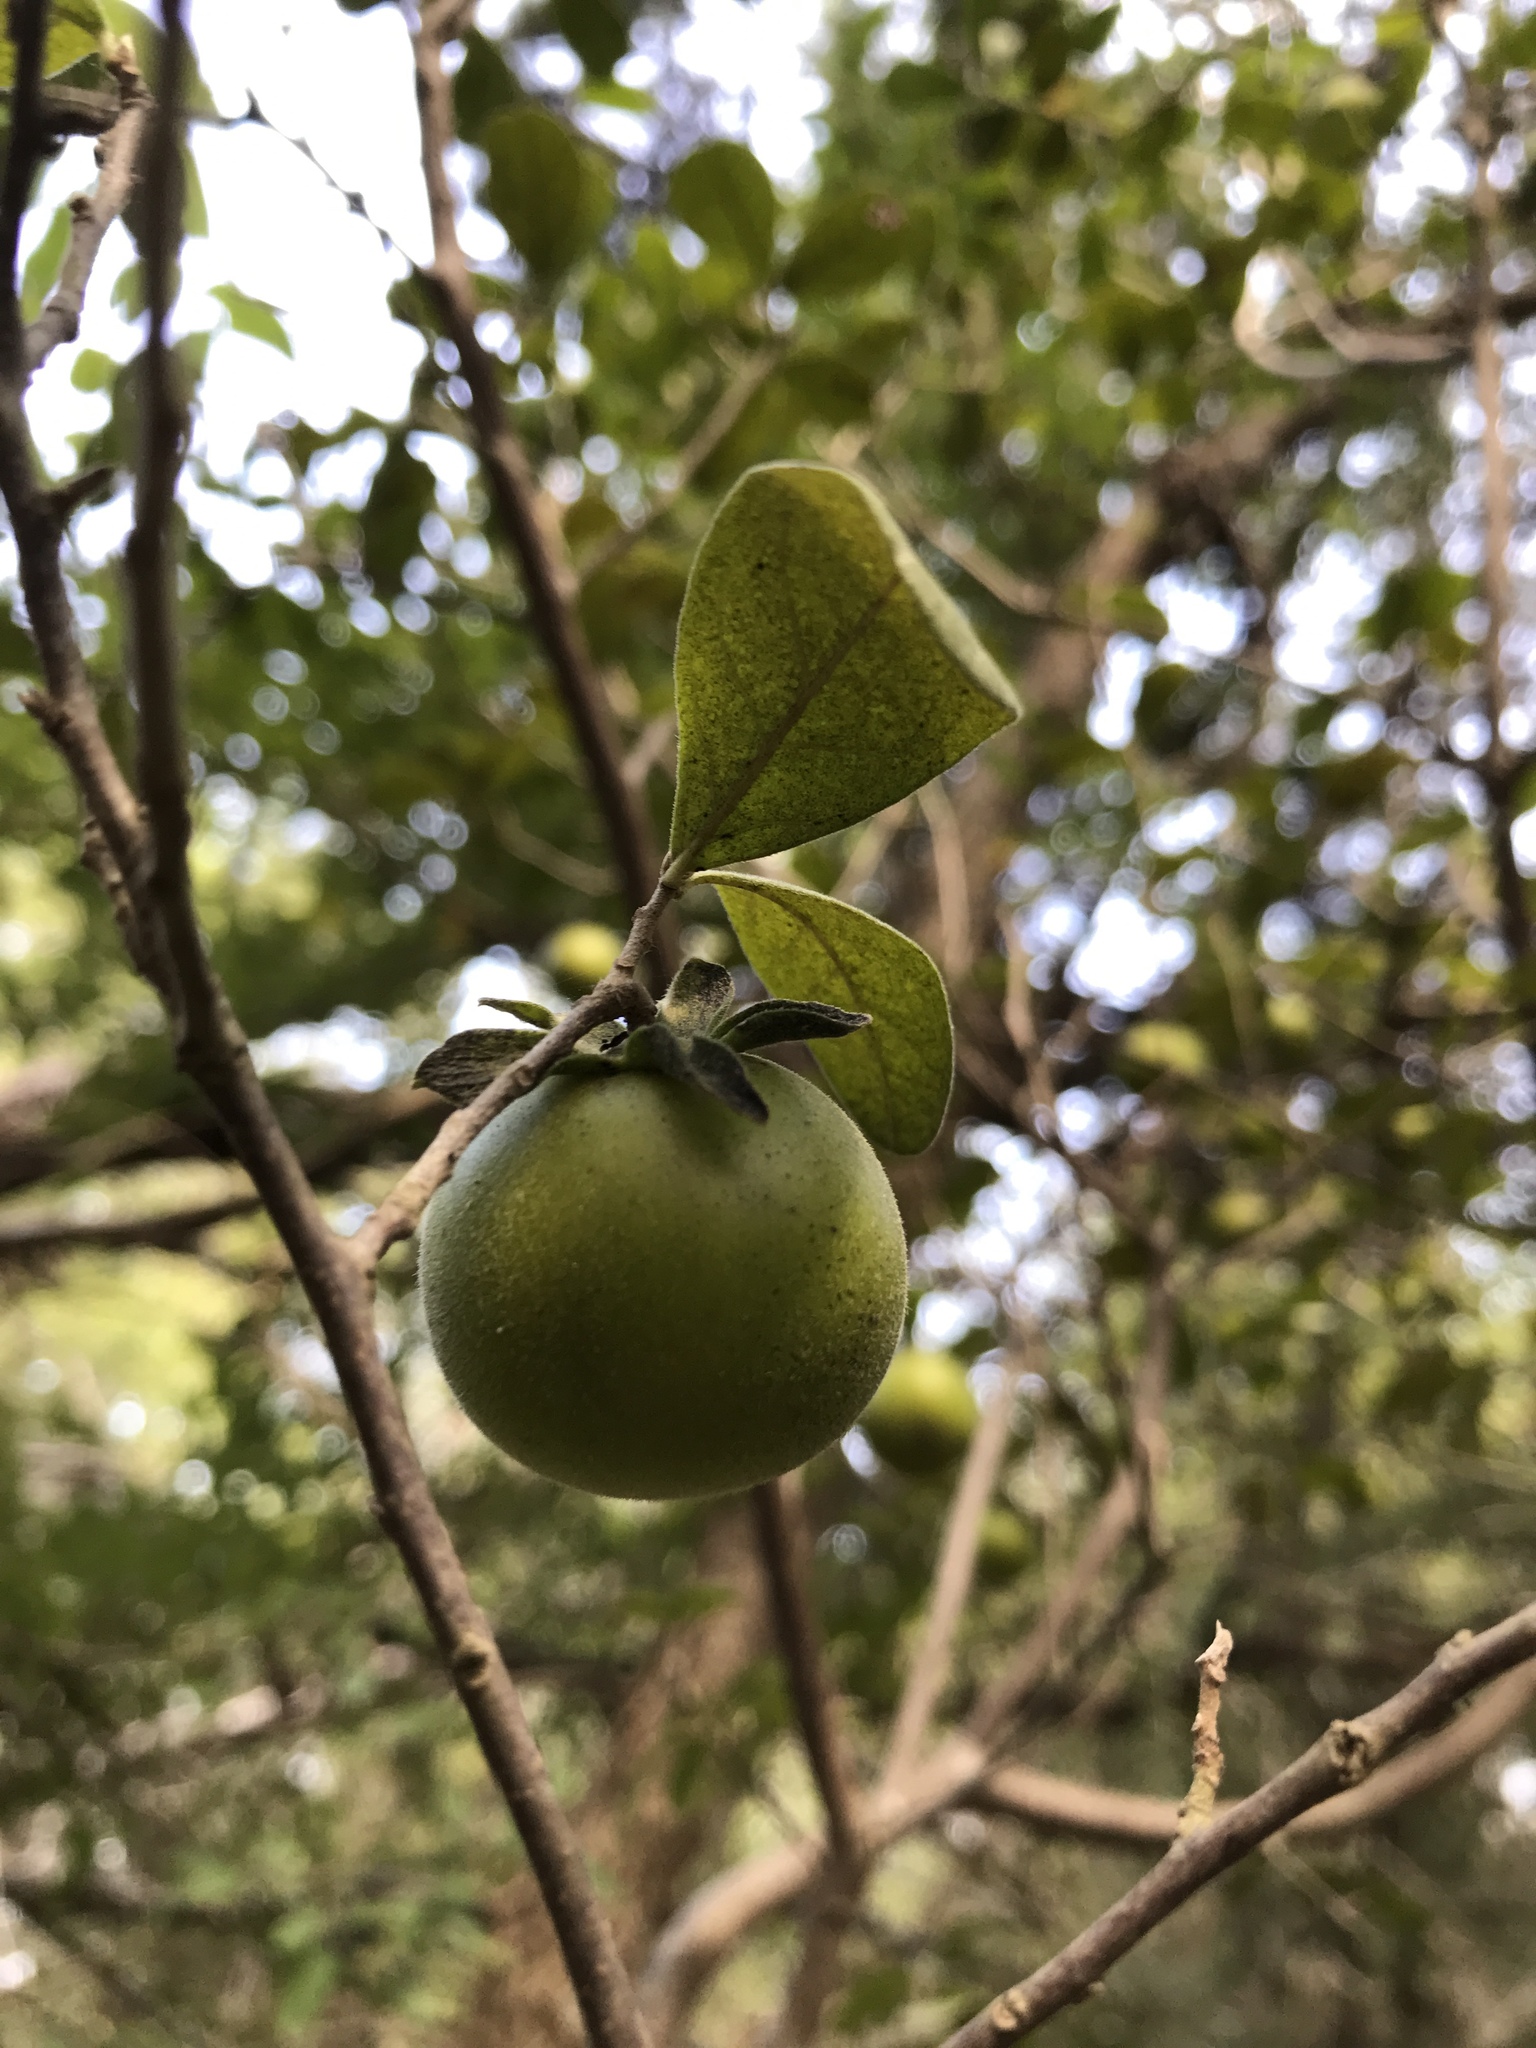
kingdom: Plantae
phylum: Tracheophyta
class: Magnoliopsida
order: Ericales
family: Ebenaceae
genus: Diospyros
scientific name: Diospyros texana
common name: Texas persimmon
